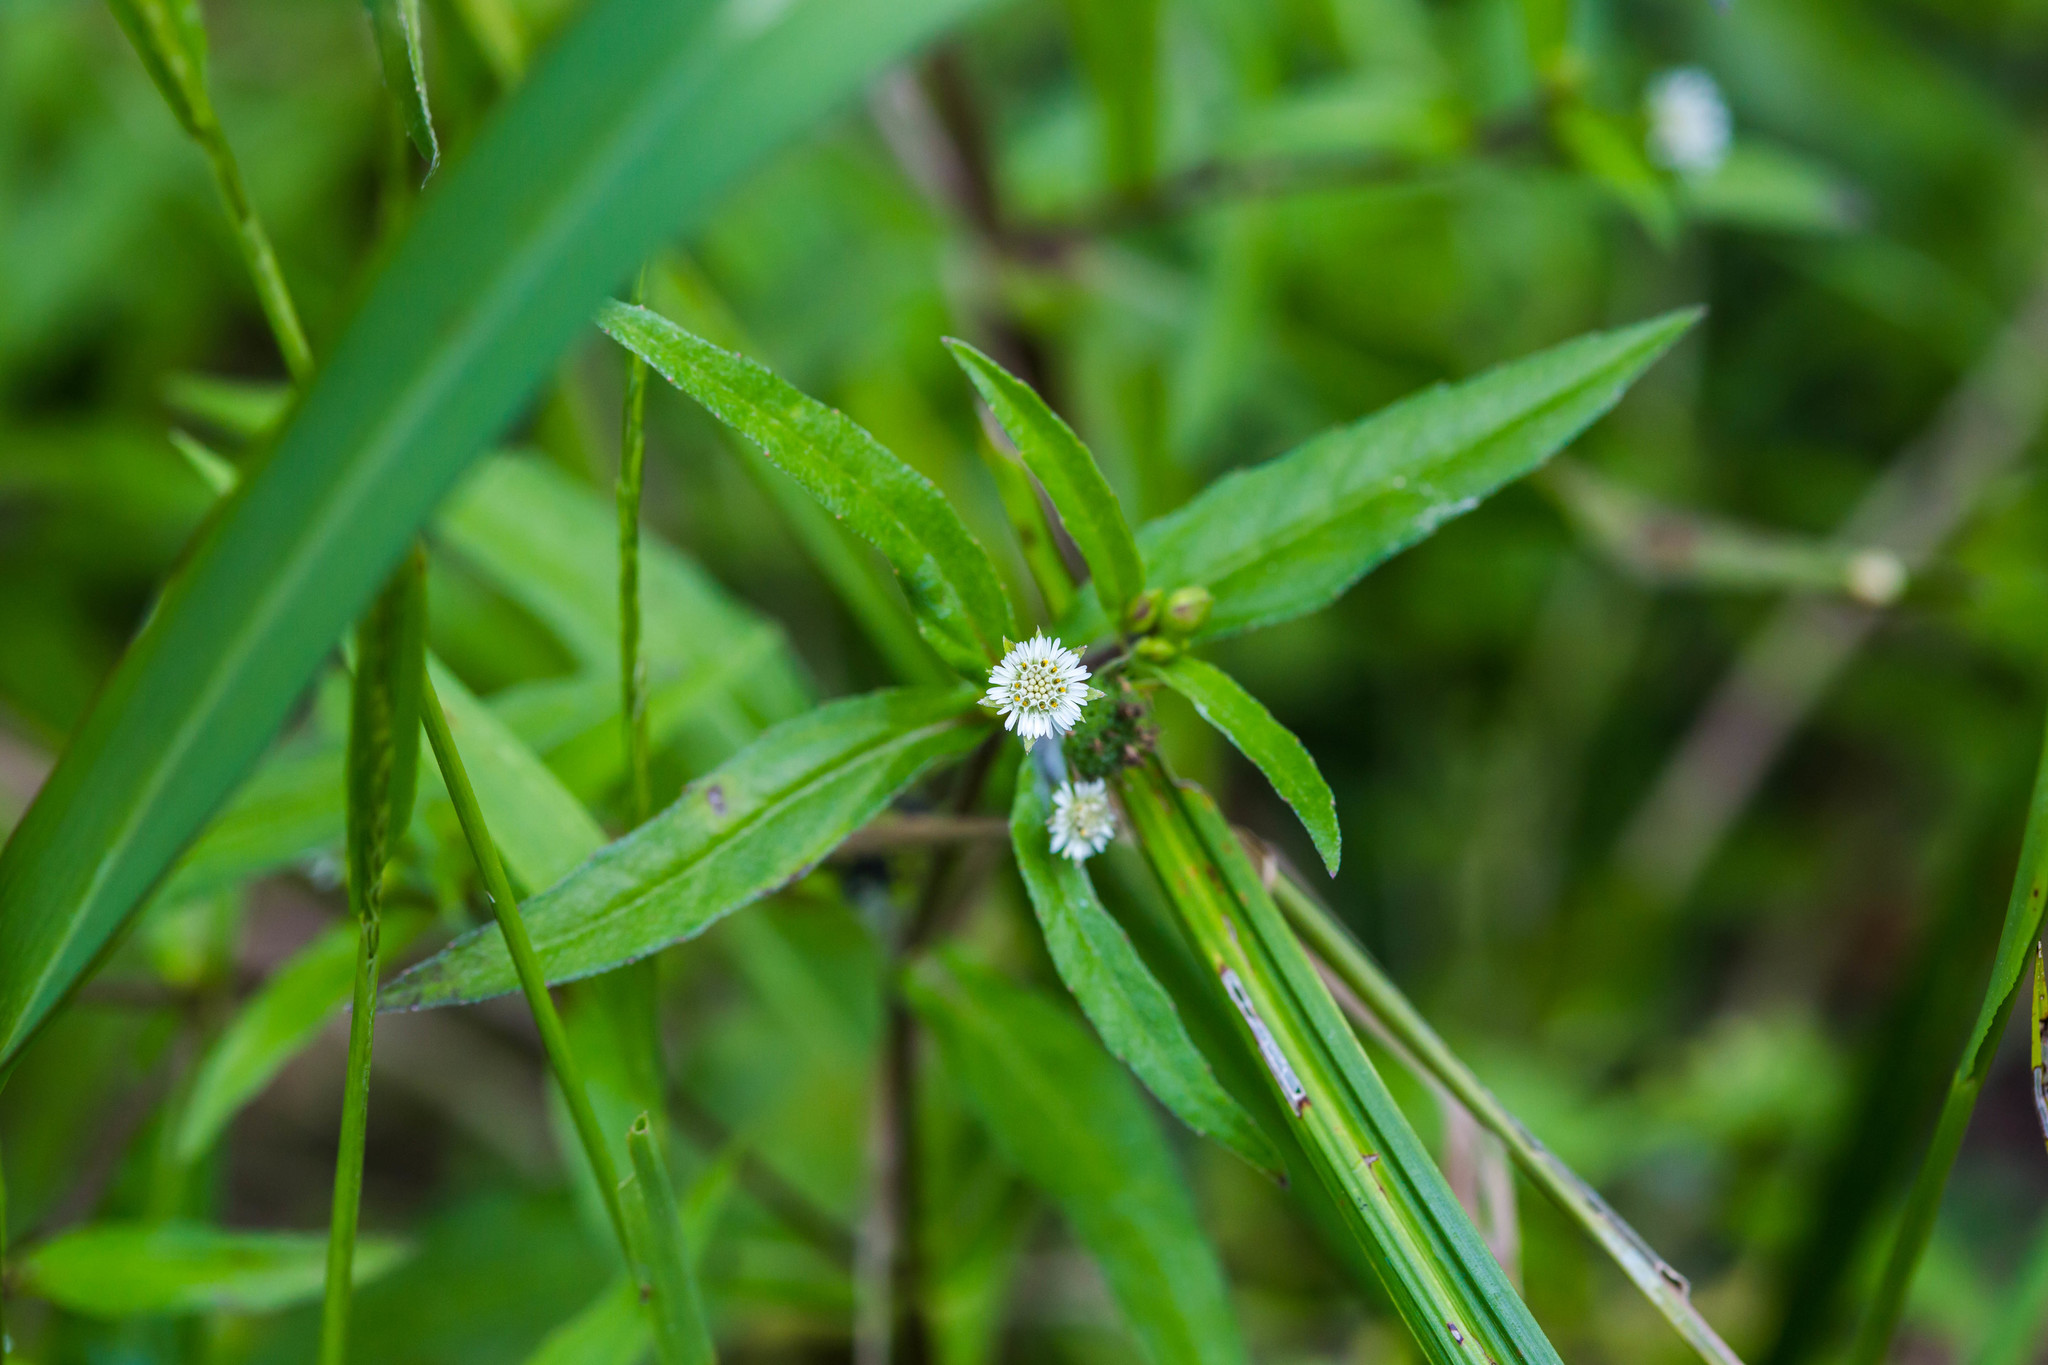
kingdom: Plantae
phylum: Tracheophyta
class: Magnoliopsida
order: Asterales
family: Asteraceae
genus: Eclipta
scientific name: Eclipta prostrata
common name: False daisy
